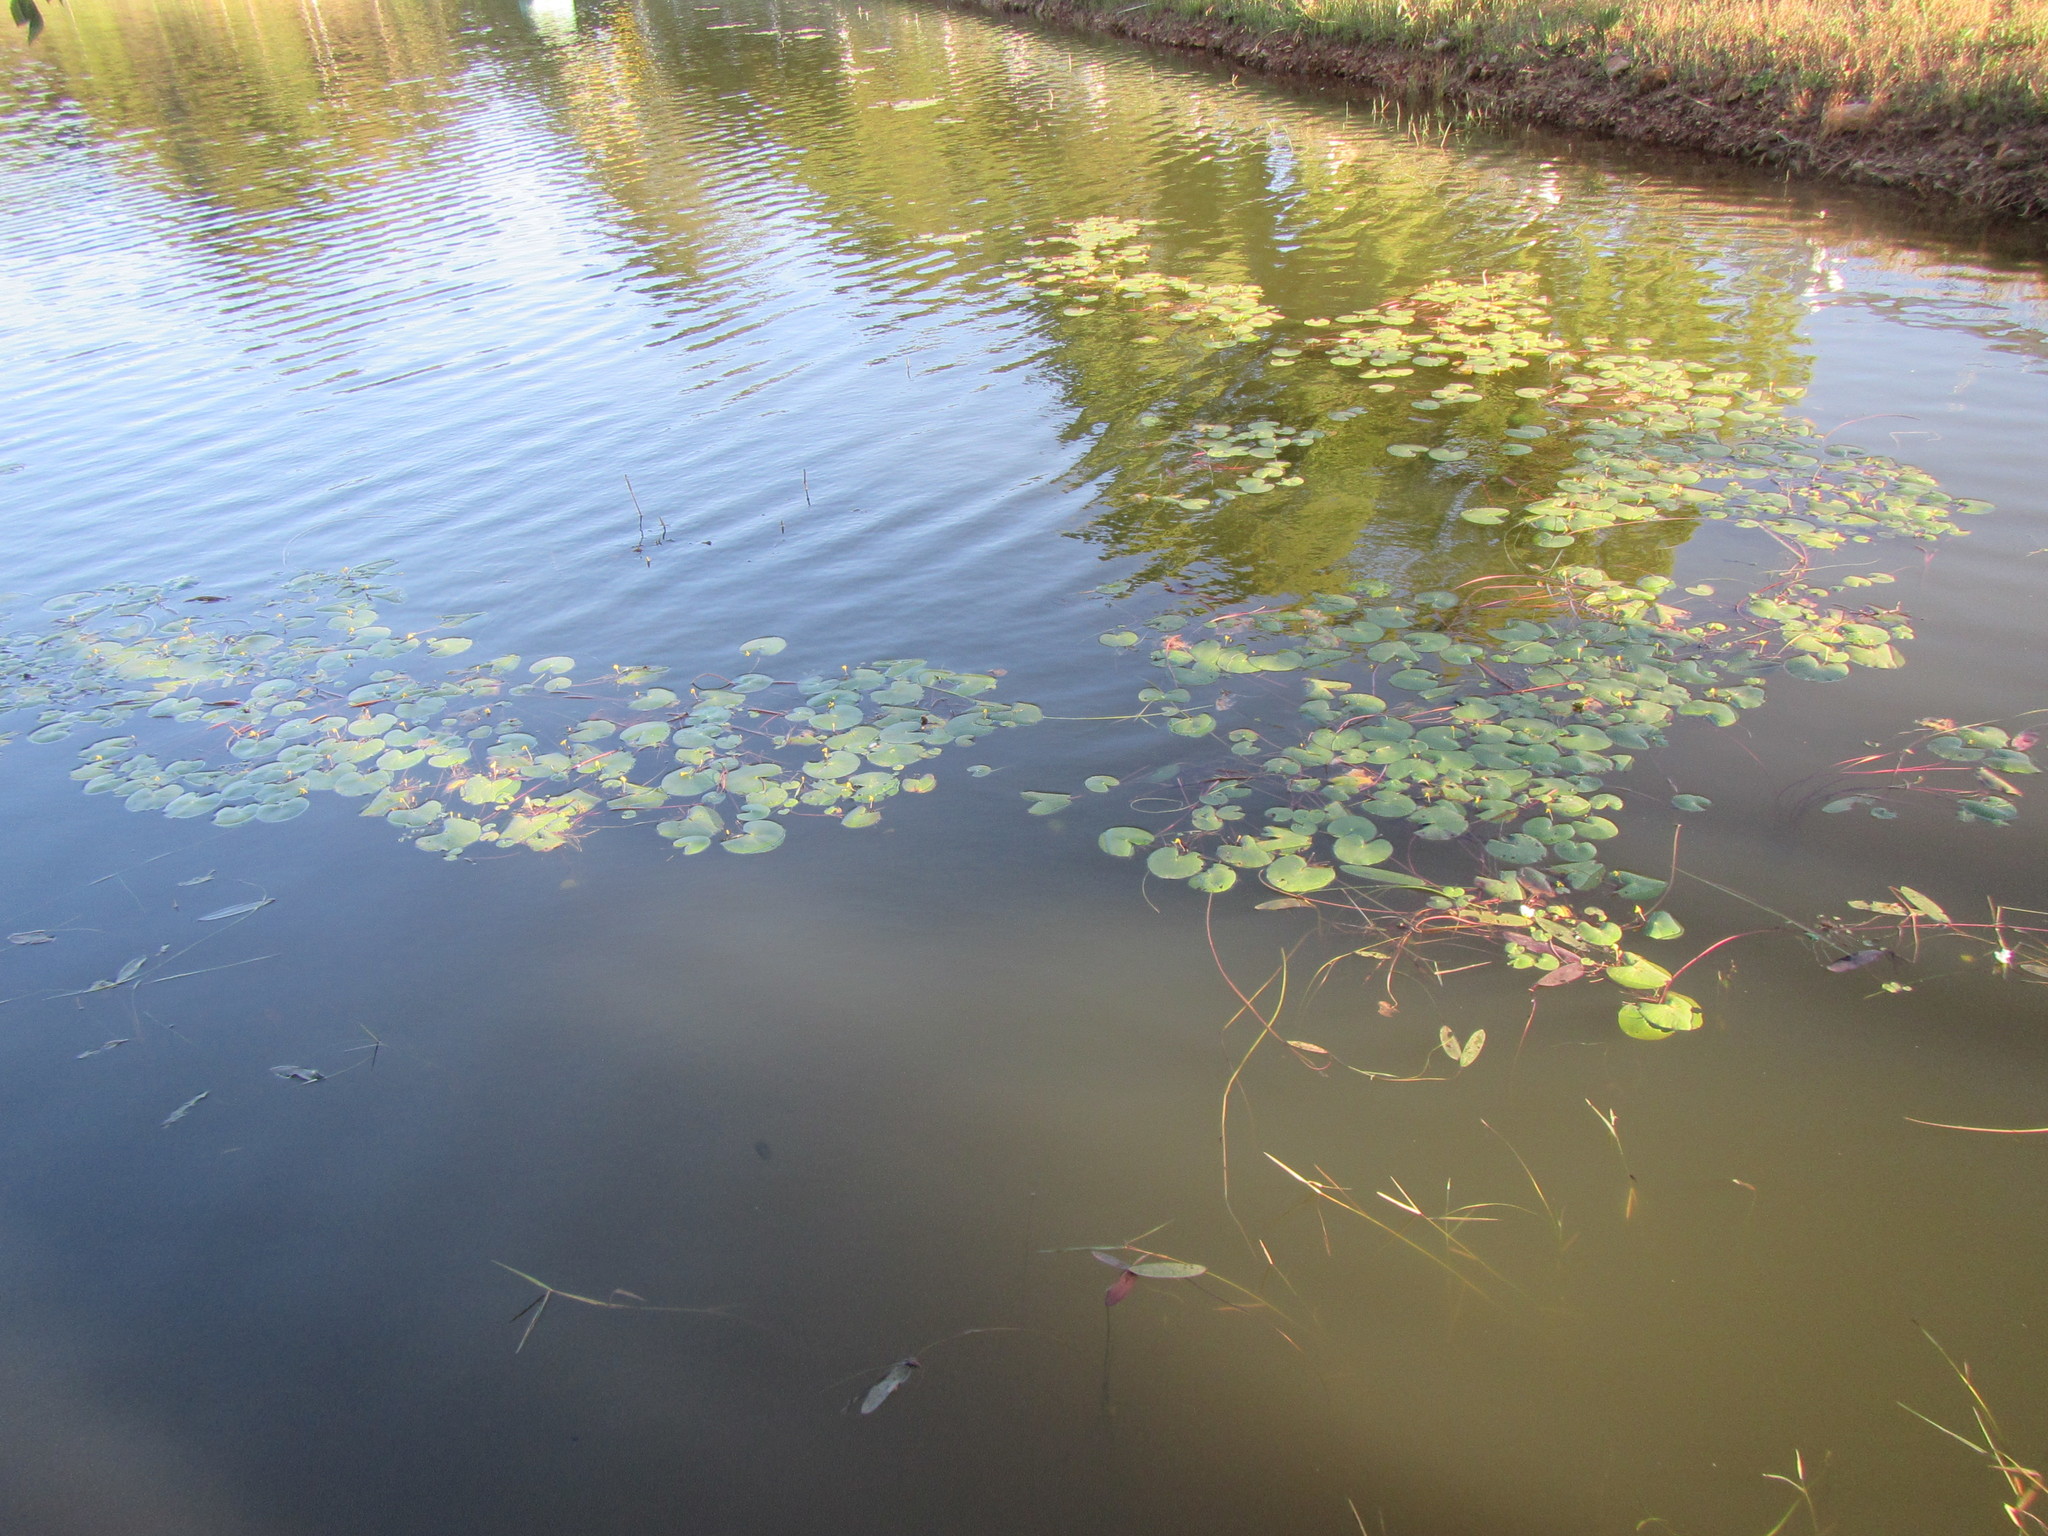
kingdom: Plantae
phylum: Tracheophyta
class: Magnoliopsida
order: Asterales
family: Menyanthaceae
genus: Nymphoides
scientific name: Nymphoides thunbergiana
